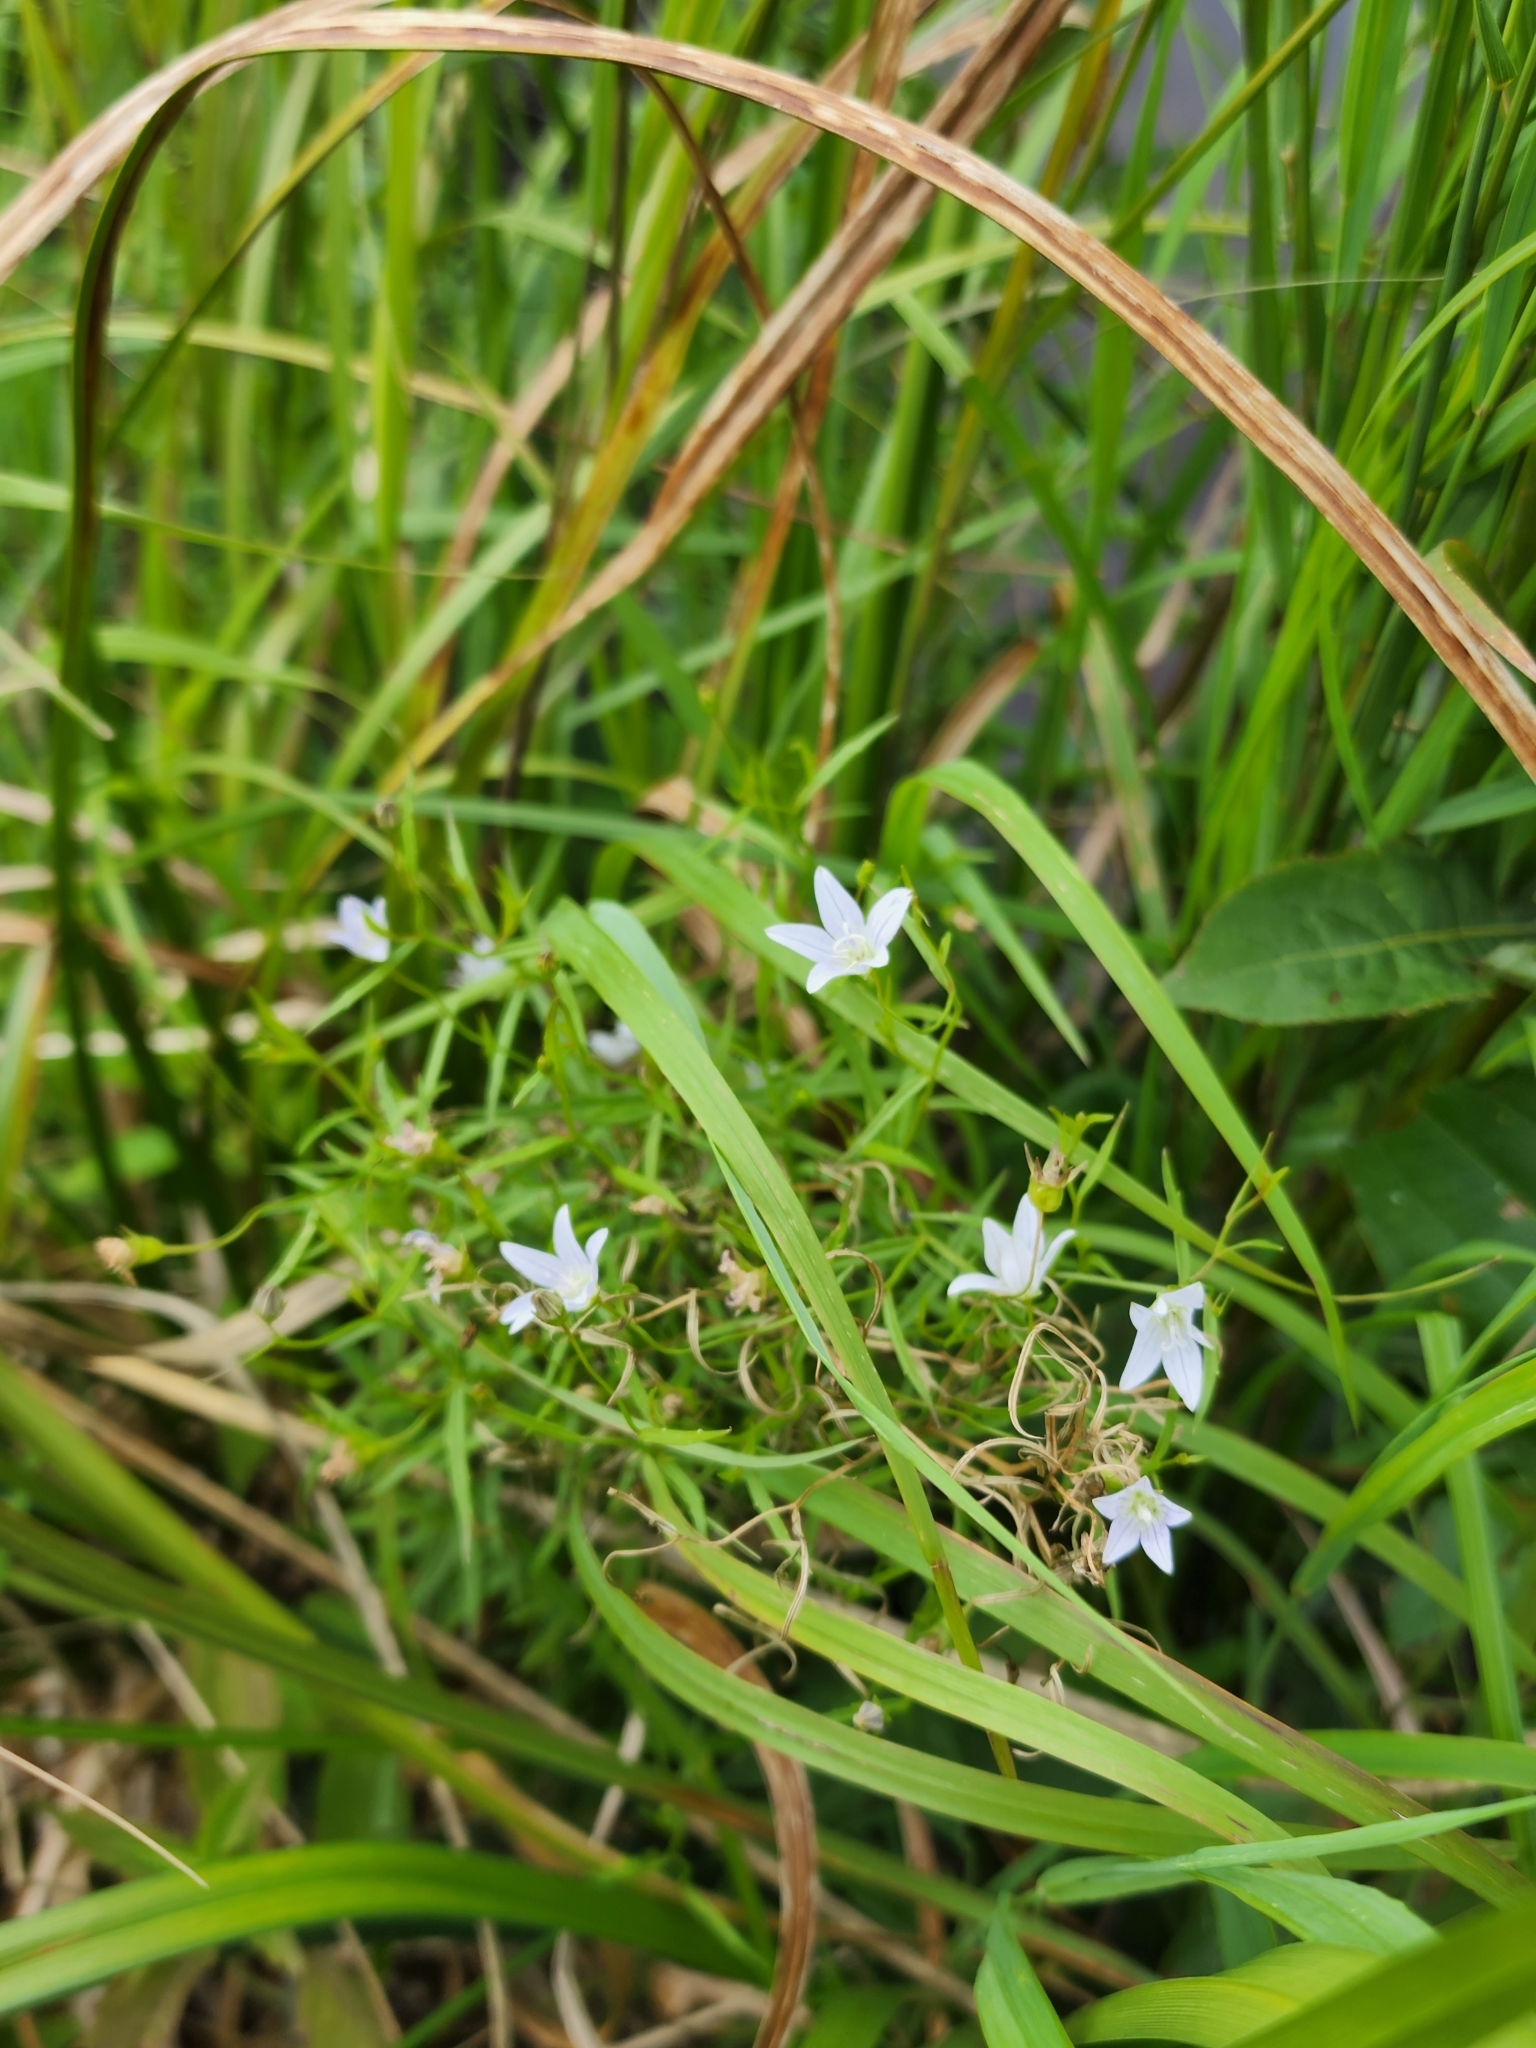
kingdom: Plantae
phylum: Tracheophyta
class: Magnoliopsida
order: Asterales
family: Campanulaceae
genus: Palustricodon
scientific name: Palustricodon aparinoides
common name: Bedstraw bellflower
